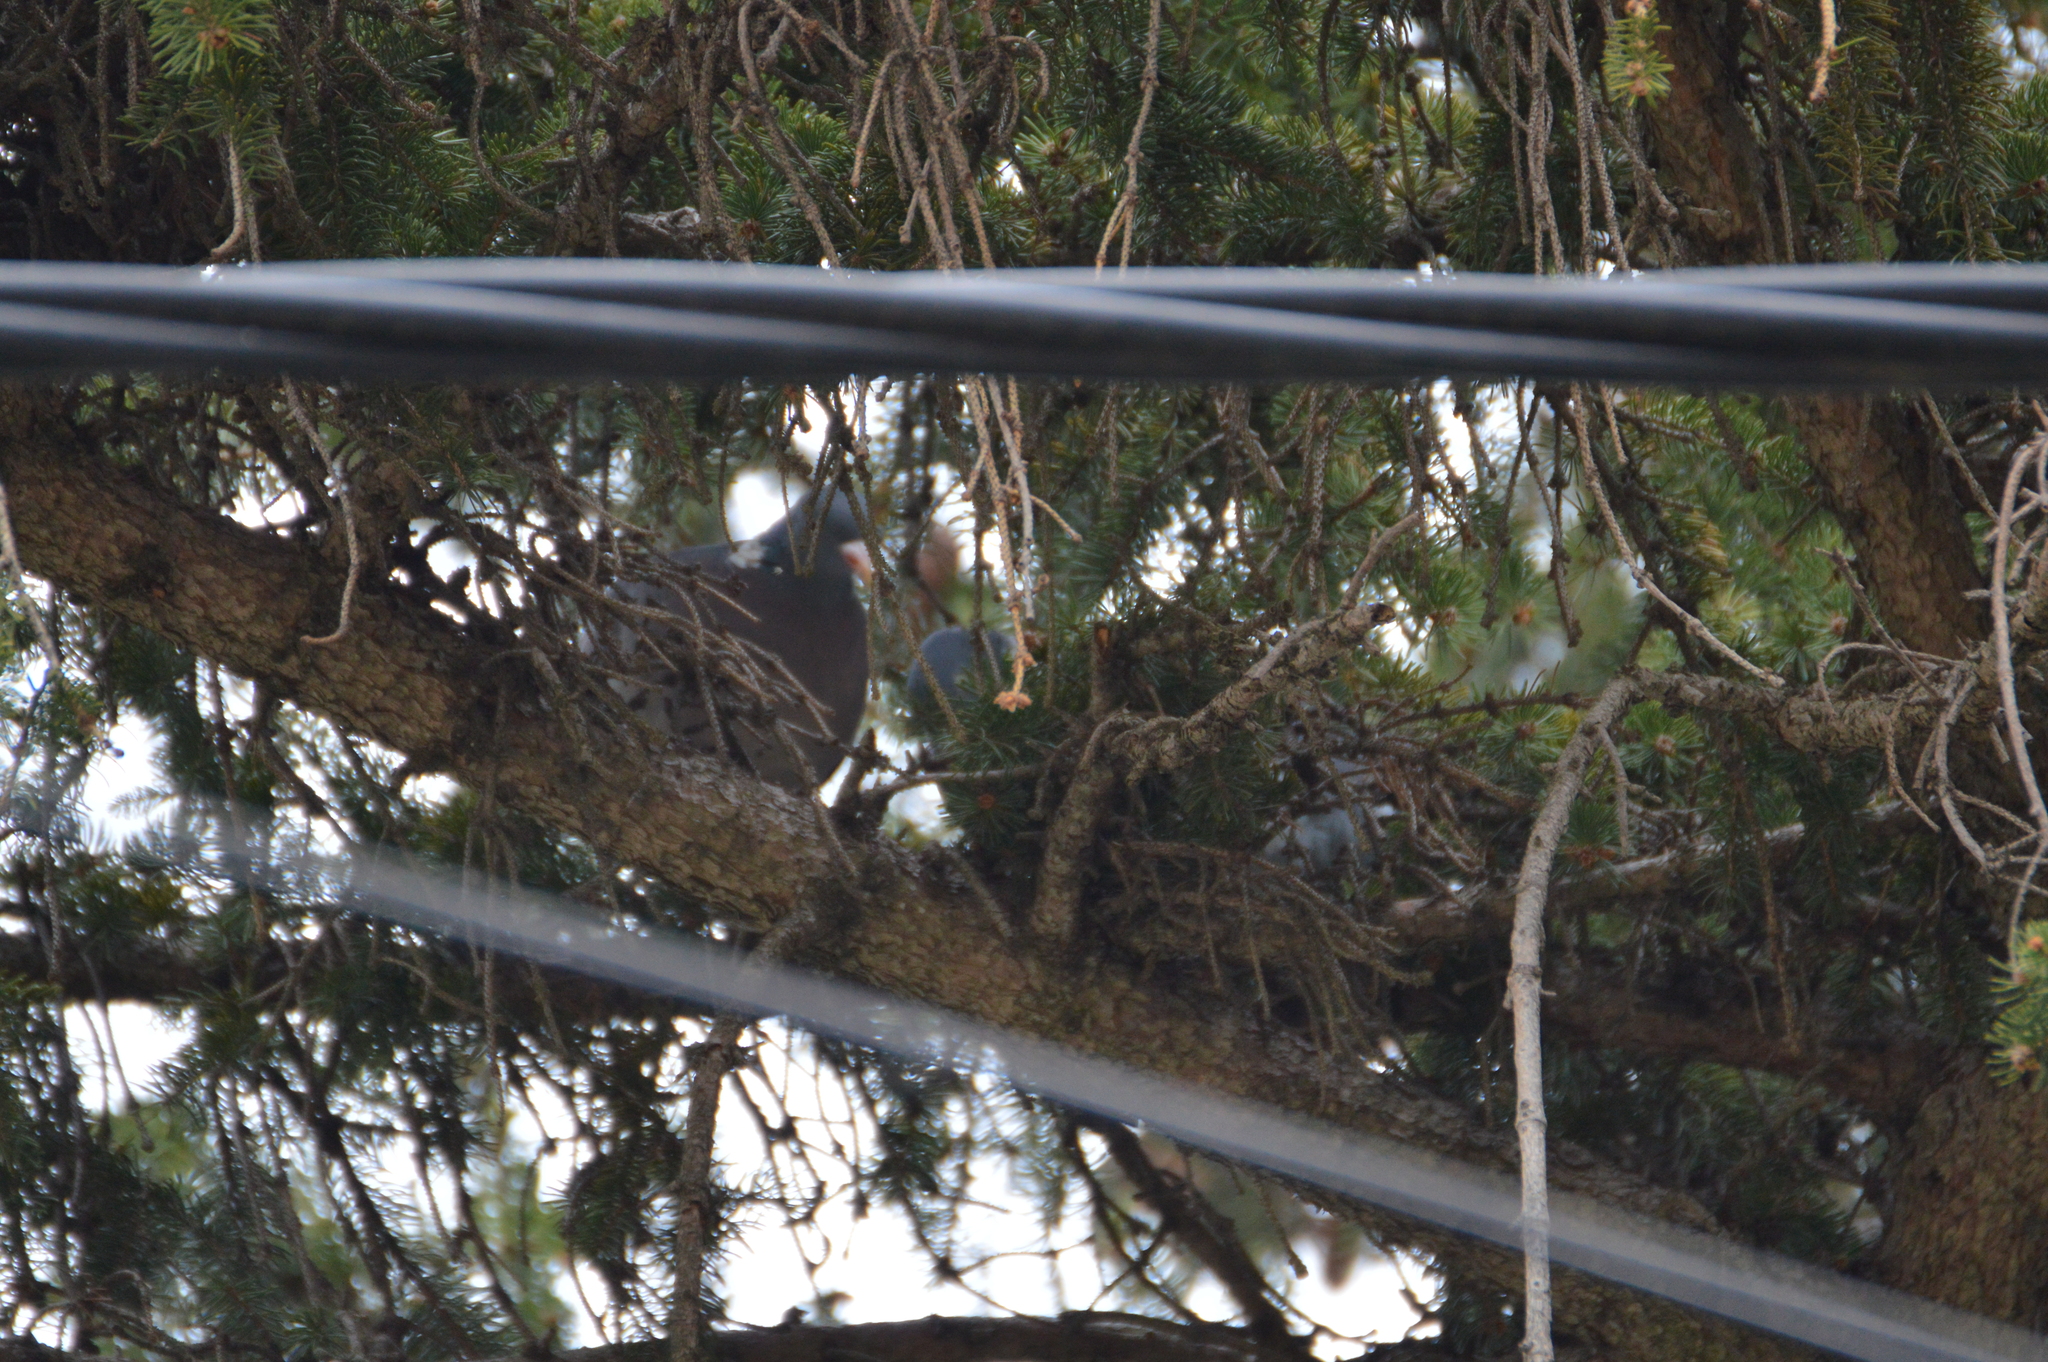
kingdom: Animalia
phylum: Chordata
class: Aves
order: Columbiformes
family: Columbidae
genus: Columba
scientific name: Columba palumbus
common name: Common wood pigeon
